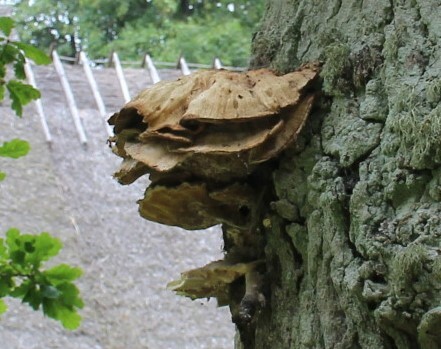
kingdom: Fungi
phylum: Basidiomycota
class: Agaricomycetes
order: Polyporales
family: Laetiporaceae
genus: Laetiporus
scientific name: Laetiporus sulphureus
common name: Chicken of the woods
